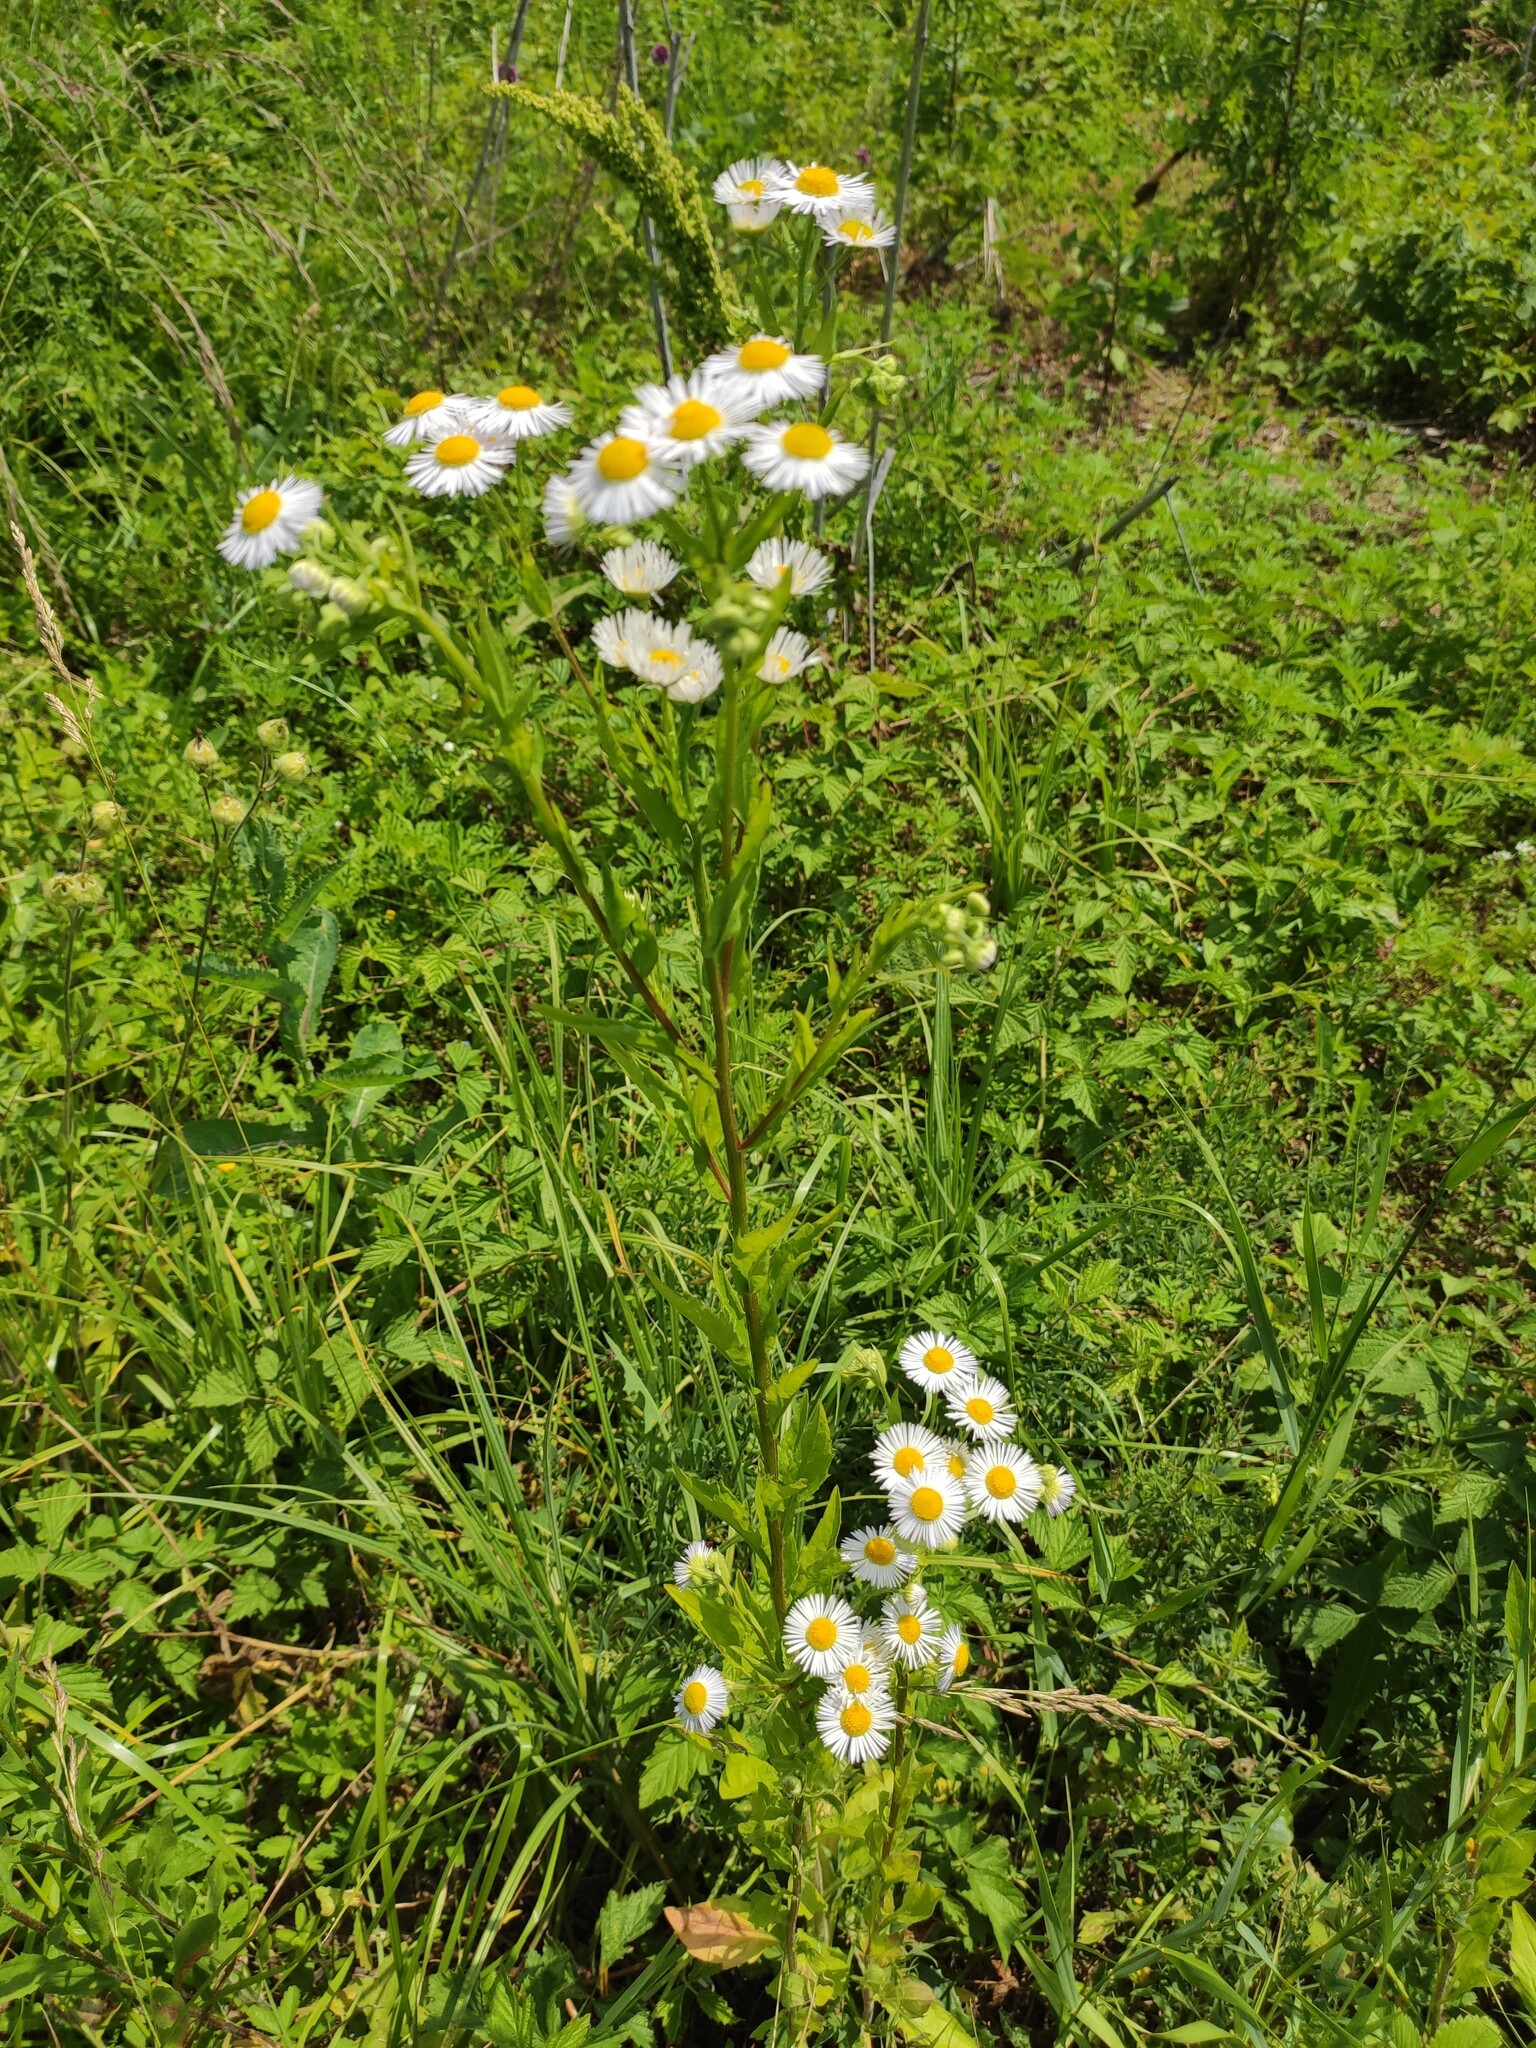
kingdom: Plantae
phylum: Tracheophyta
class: Magnoliopsida
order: Asterales
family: Asteraceae
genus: Erigeron
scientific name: Erigeron annuus
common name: Tall fleabane
